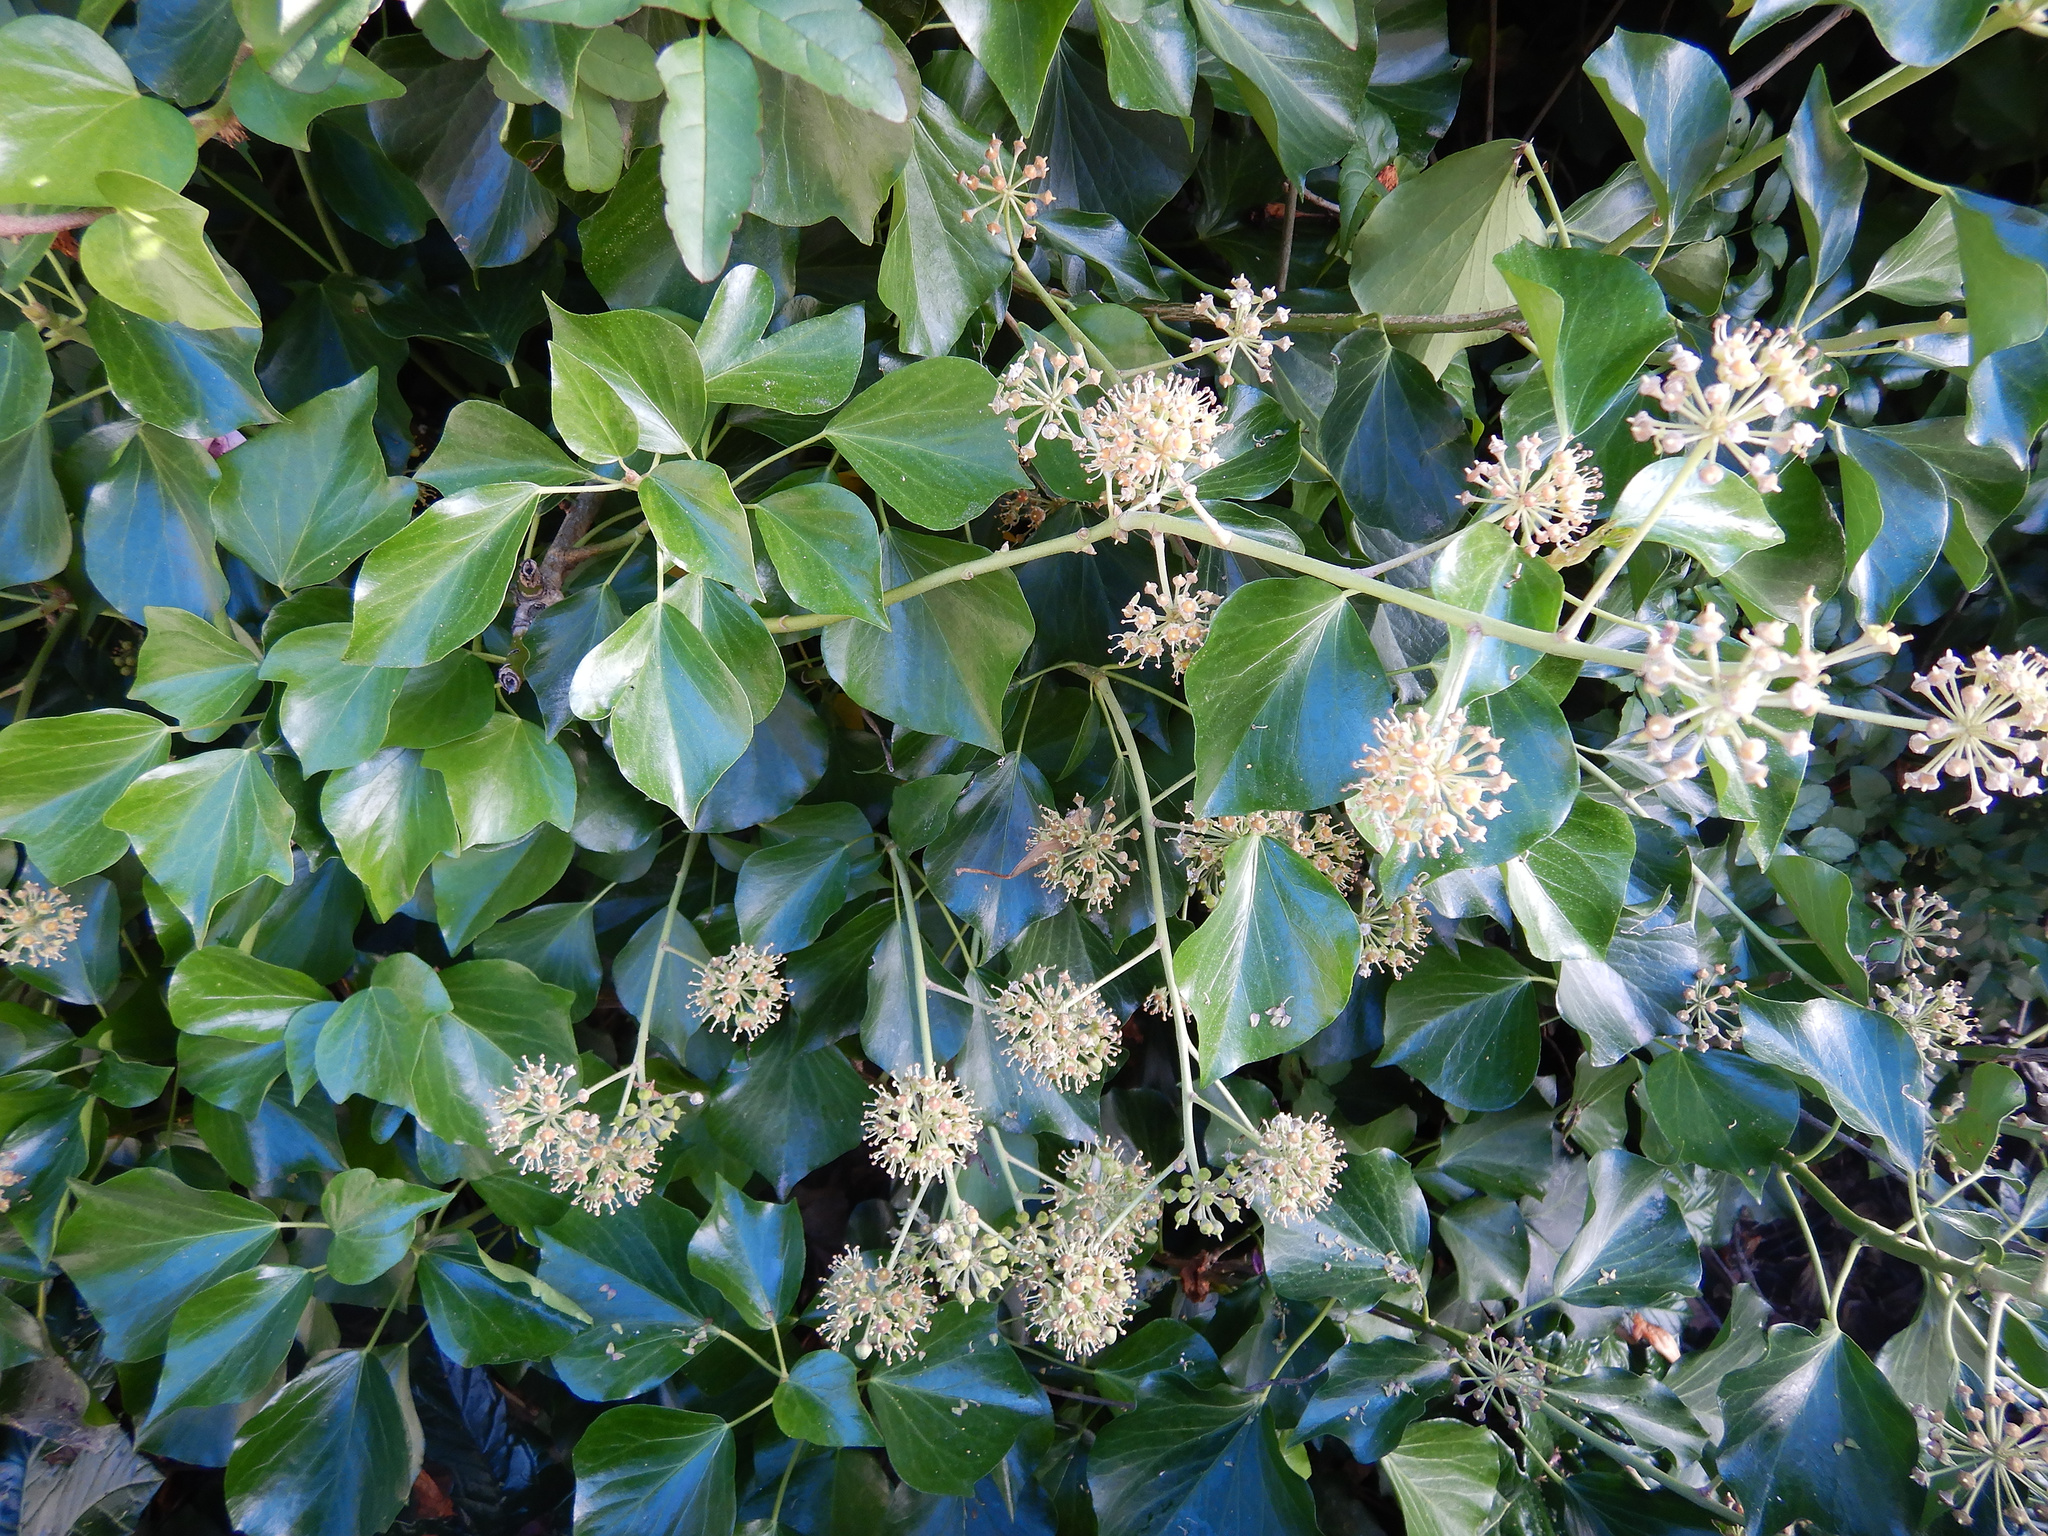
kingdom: Plantae
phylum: Tracheophyta
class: Magnoliopsida
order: Apiales
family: Araliaceae
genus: Hedera
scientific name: Hedera helix
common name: Ivy
